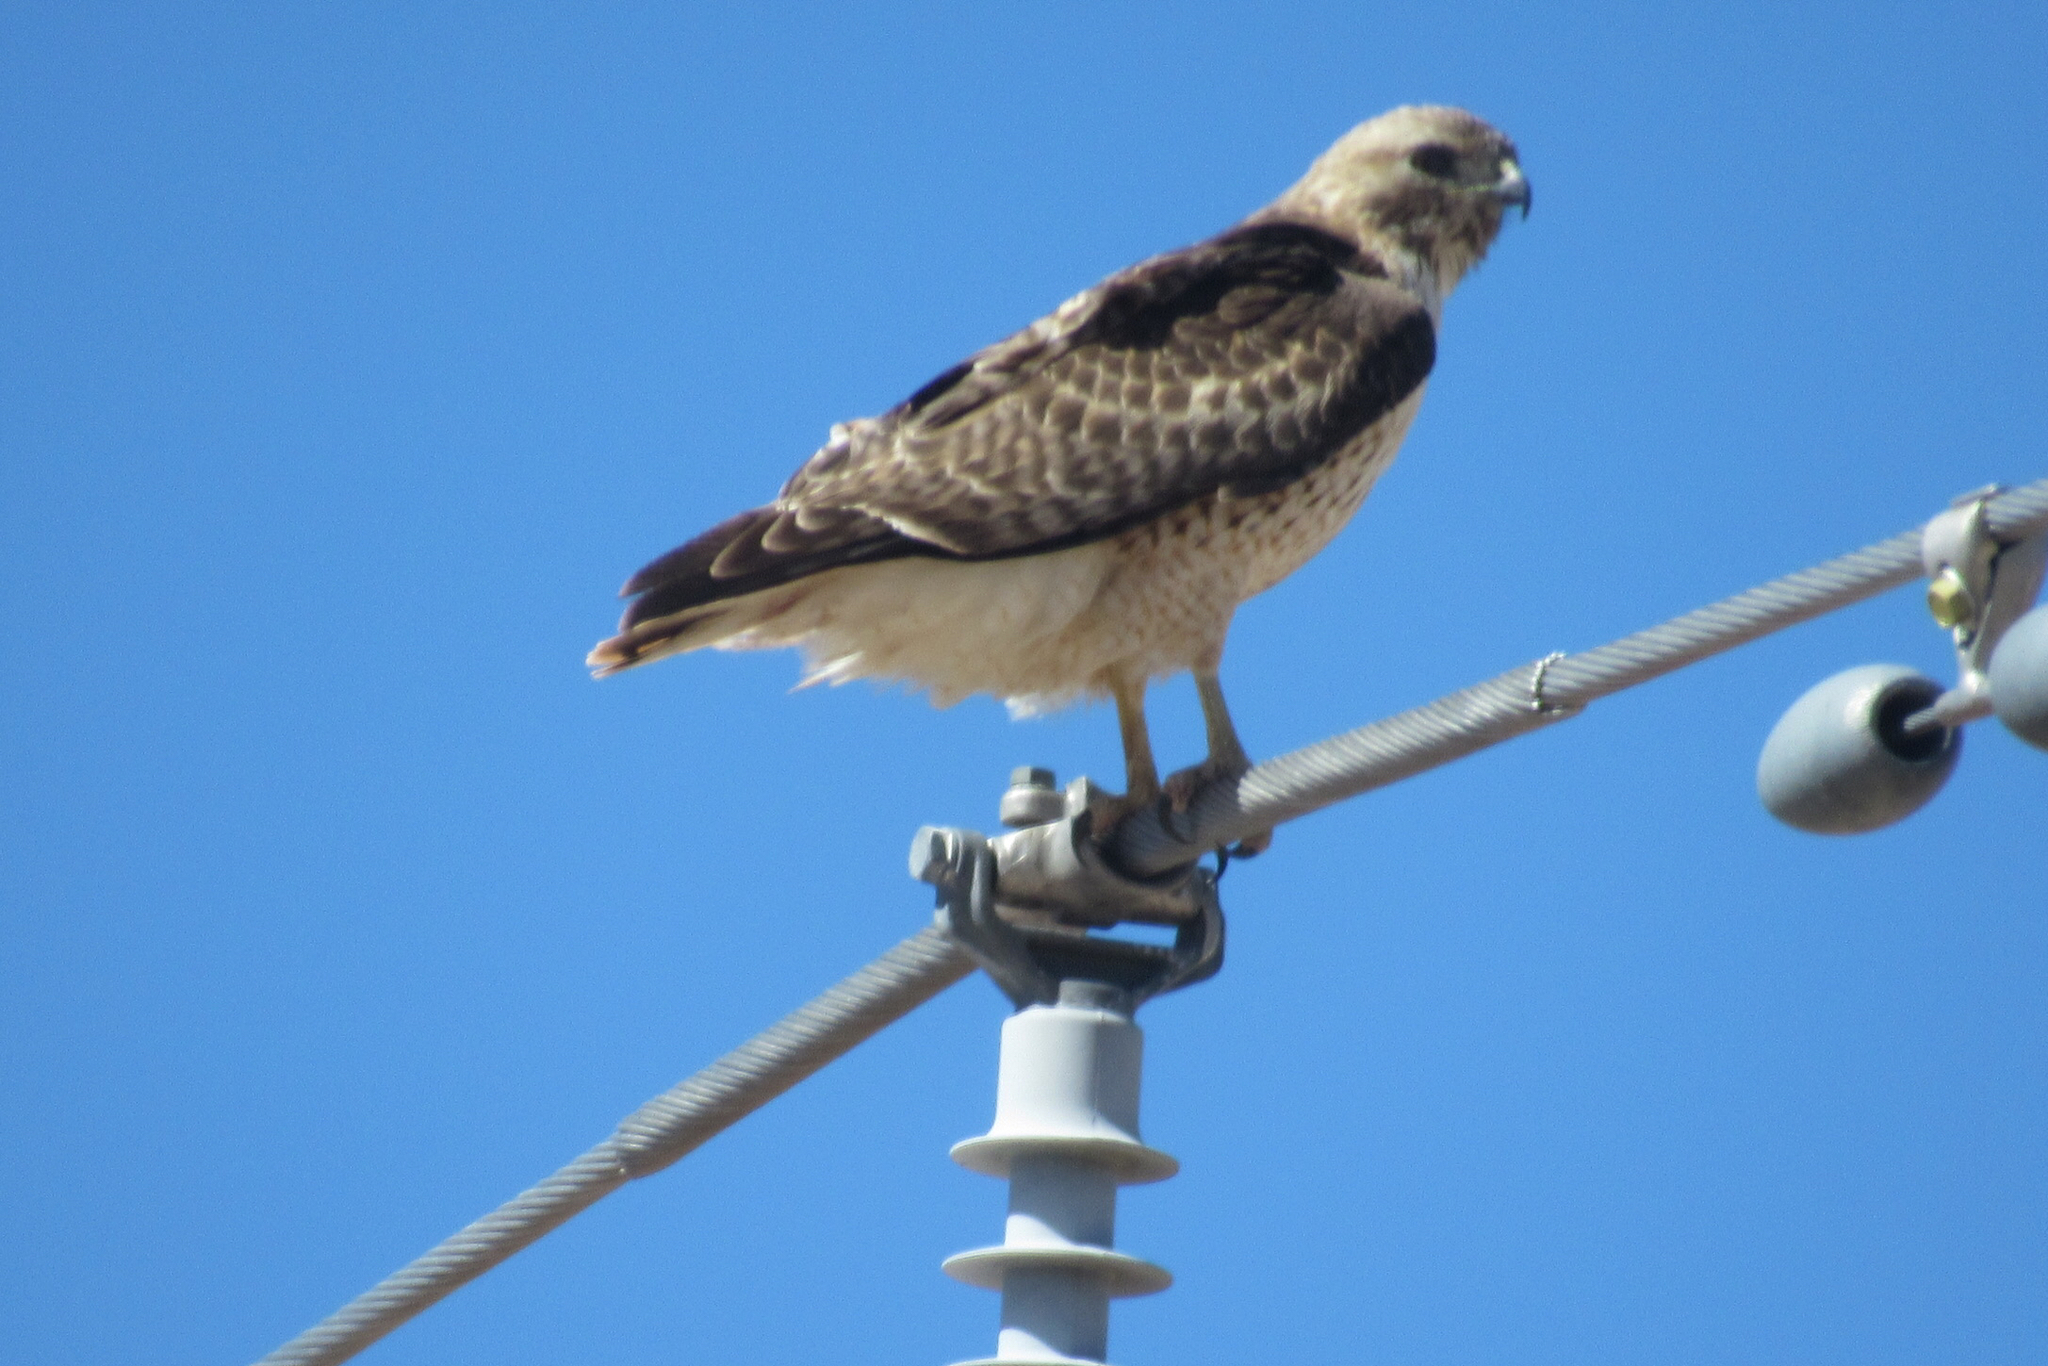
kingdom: Animalia
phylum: Chordata
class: Aves
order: Accipitriformes
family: Accipitridae
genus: Buteo
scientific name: Buteo jamaicensis
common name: Red-tailed hawk
